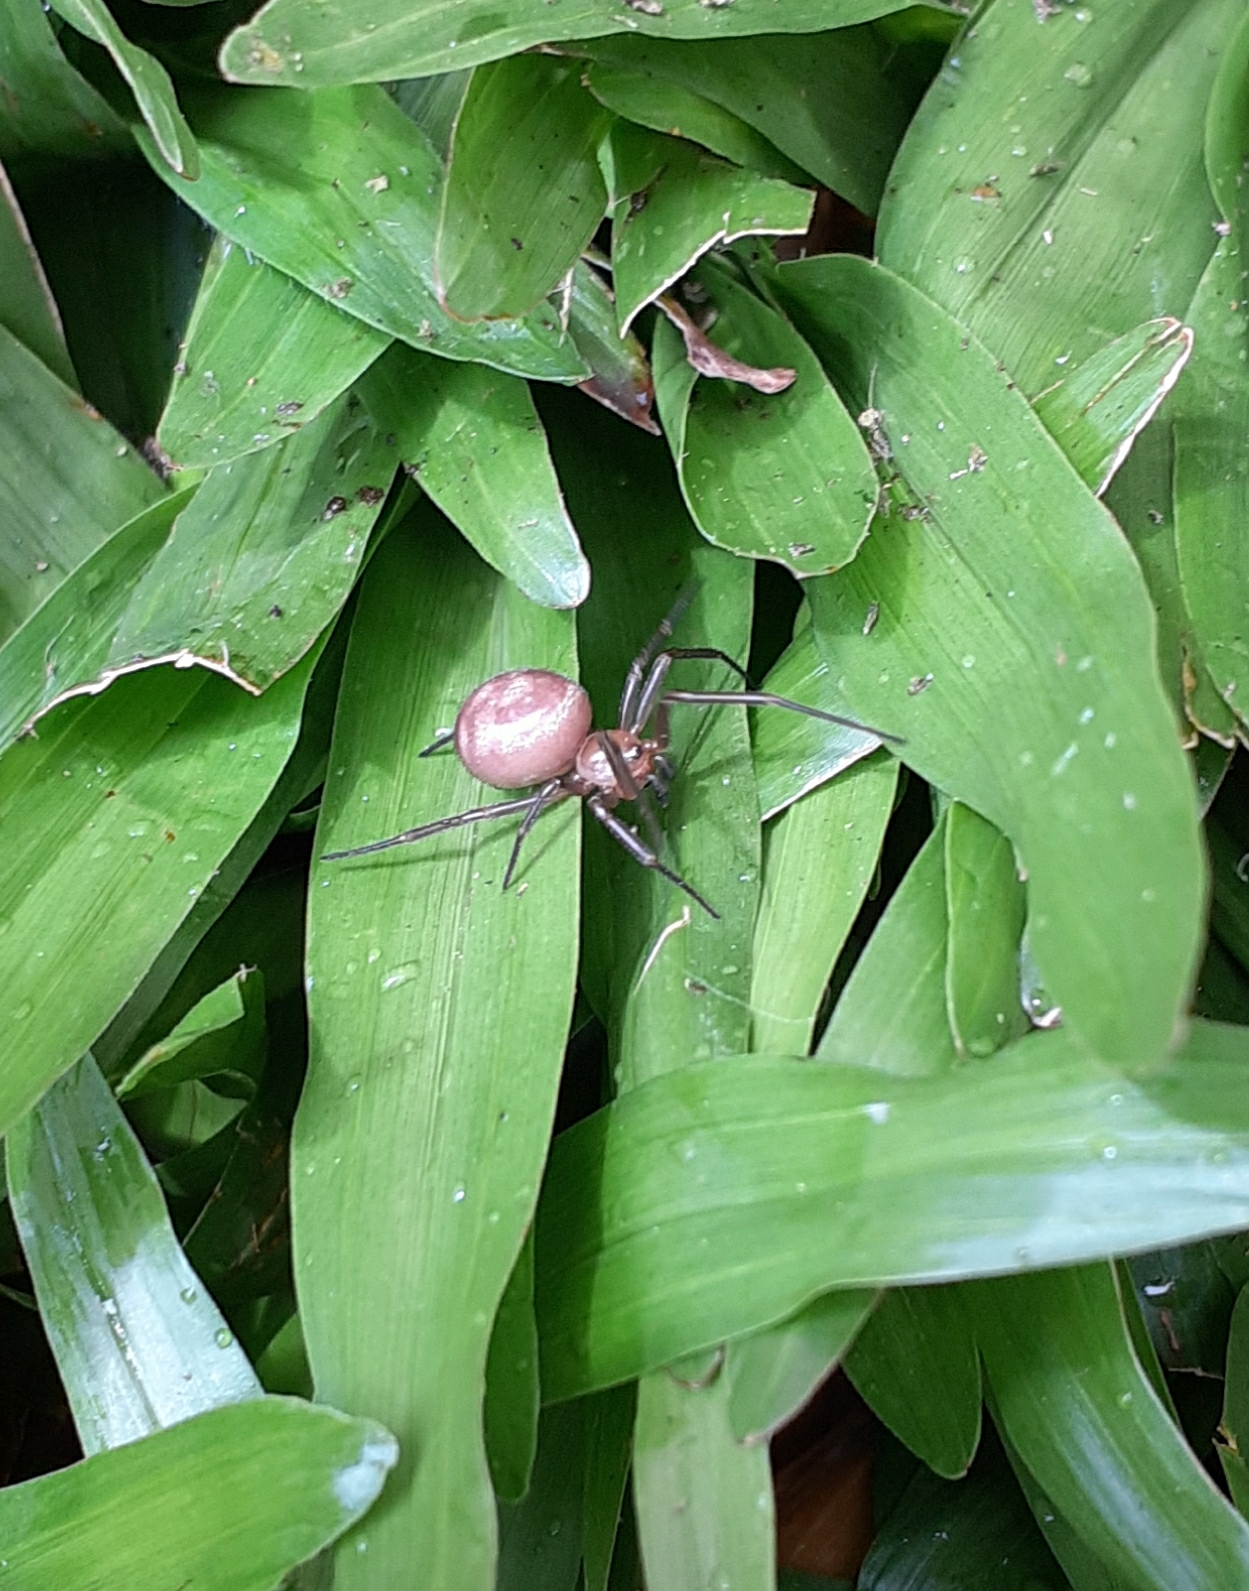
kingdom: Animalia
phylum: Arthropoda
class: Arachnida
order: Araneae
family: Theridiidae
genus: Steatoda
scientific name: Steatoda grossa
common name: False black widow
